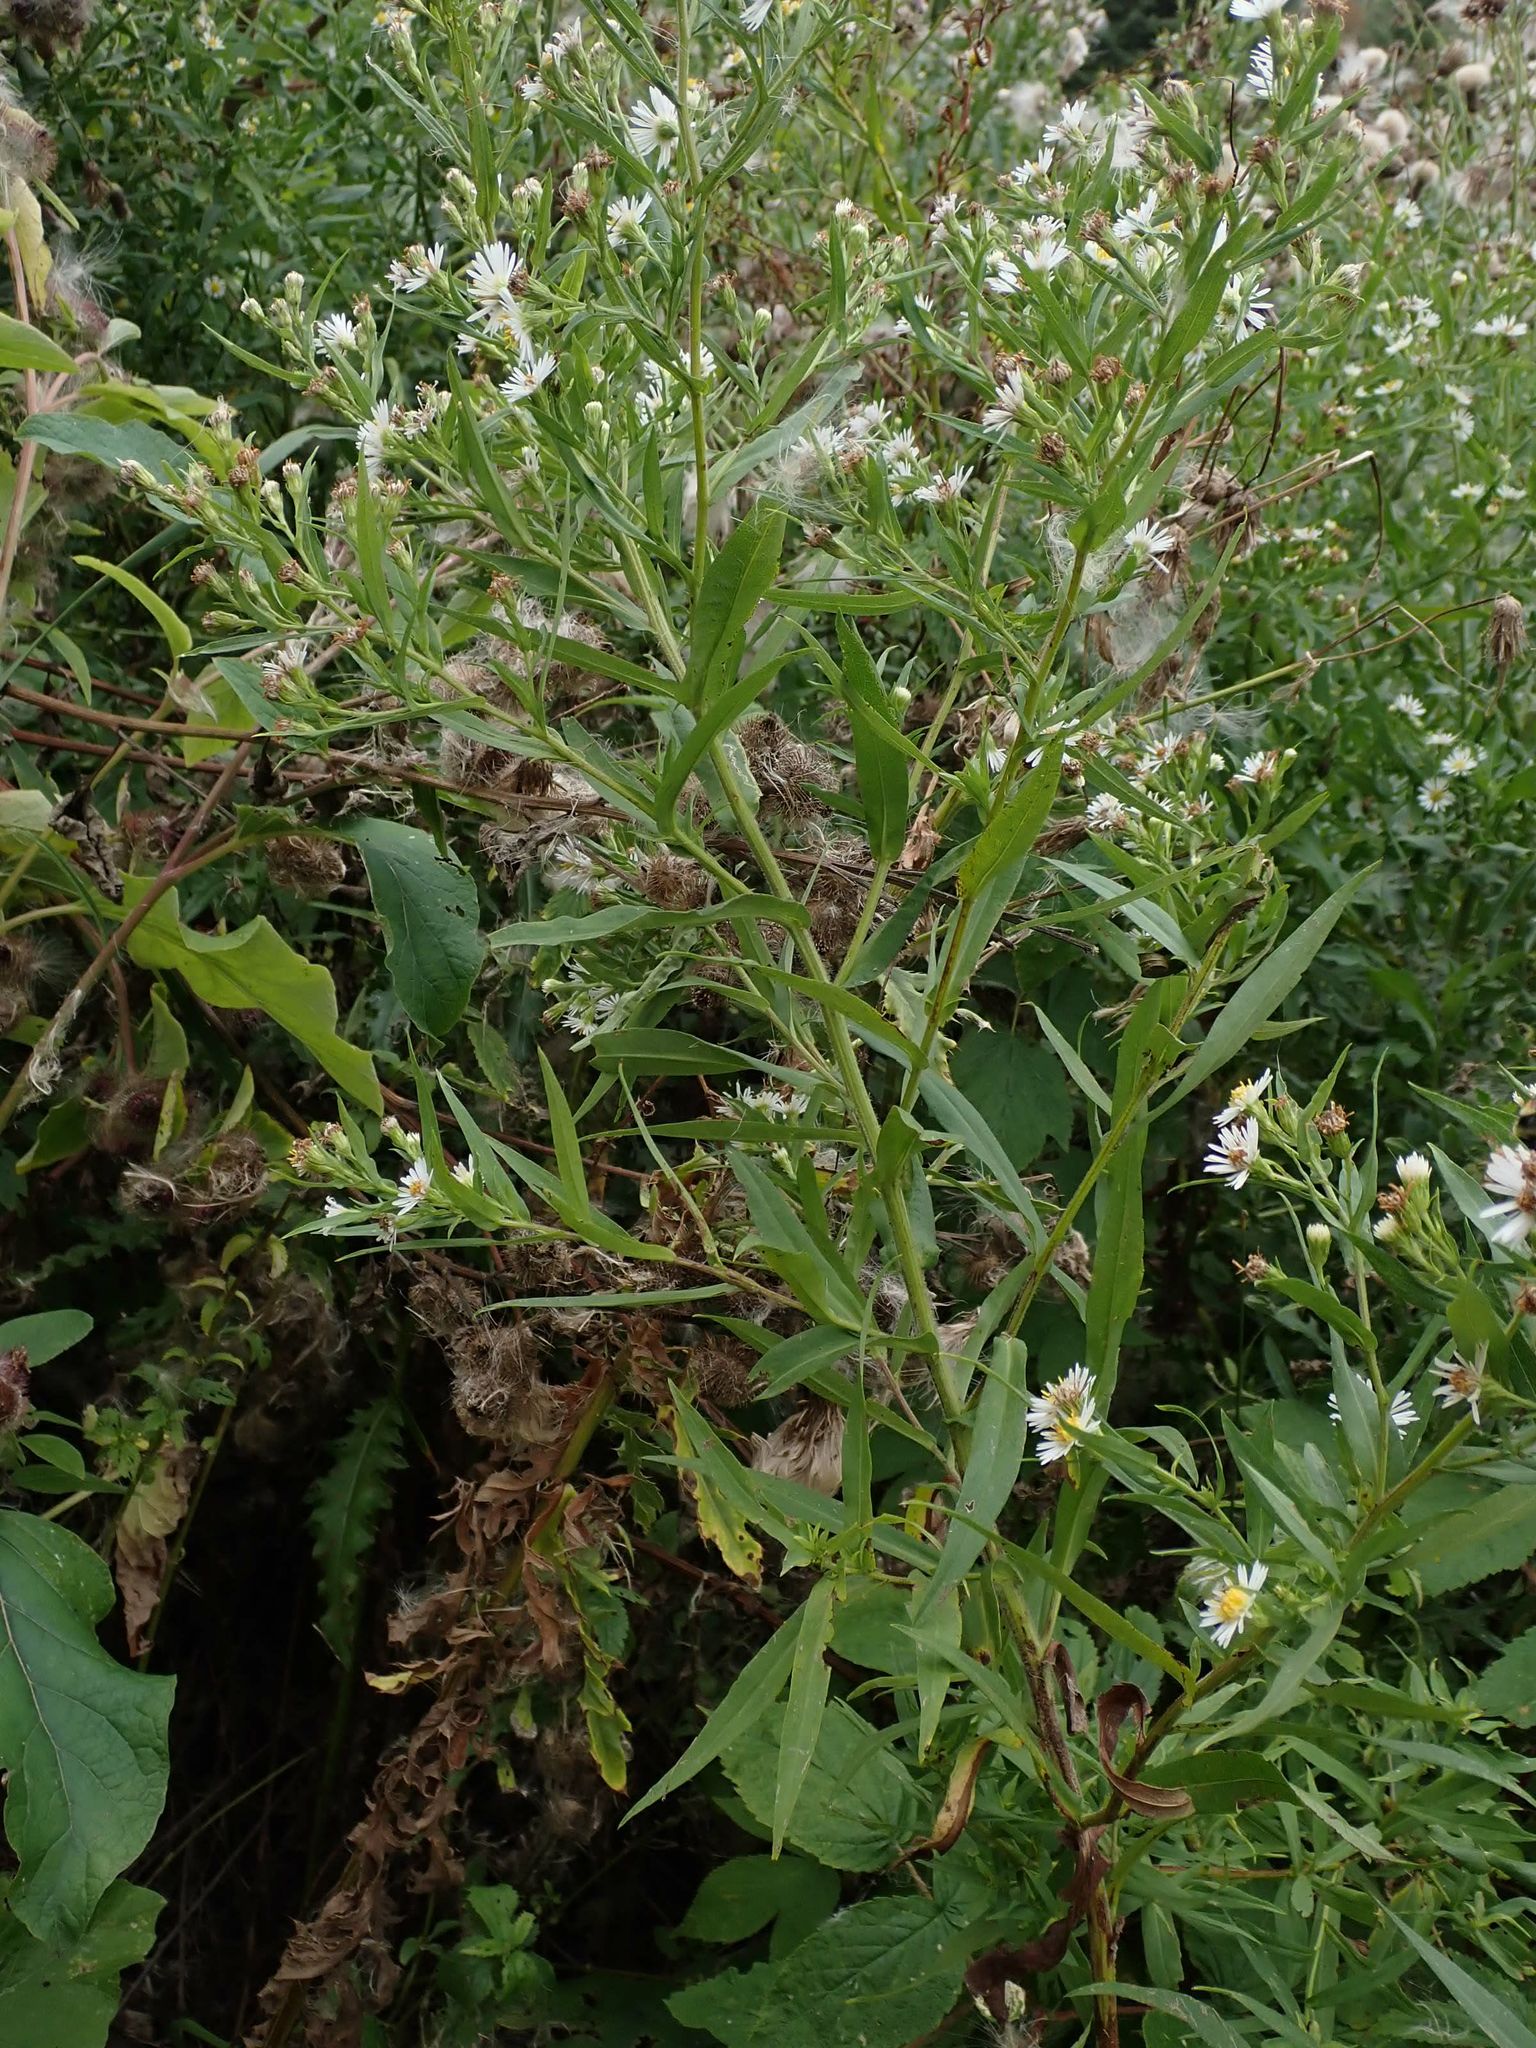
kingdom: Plantae
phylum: Tracheophyta
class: Magnoliopsida
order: Asterales
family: Asteraceae
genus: Symphyotrichum
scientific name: Symphyotrichum lanceolatum
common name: Panicled aster
